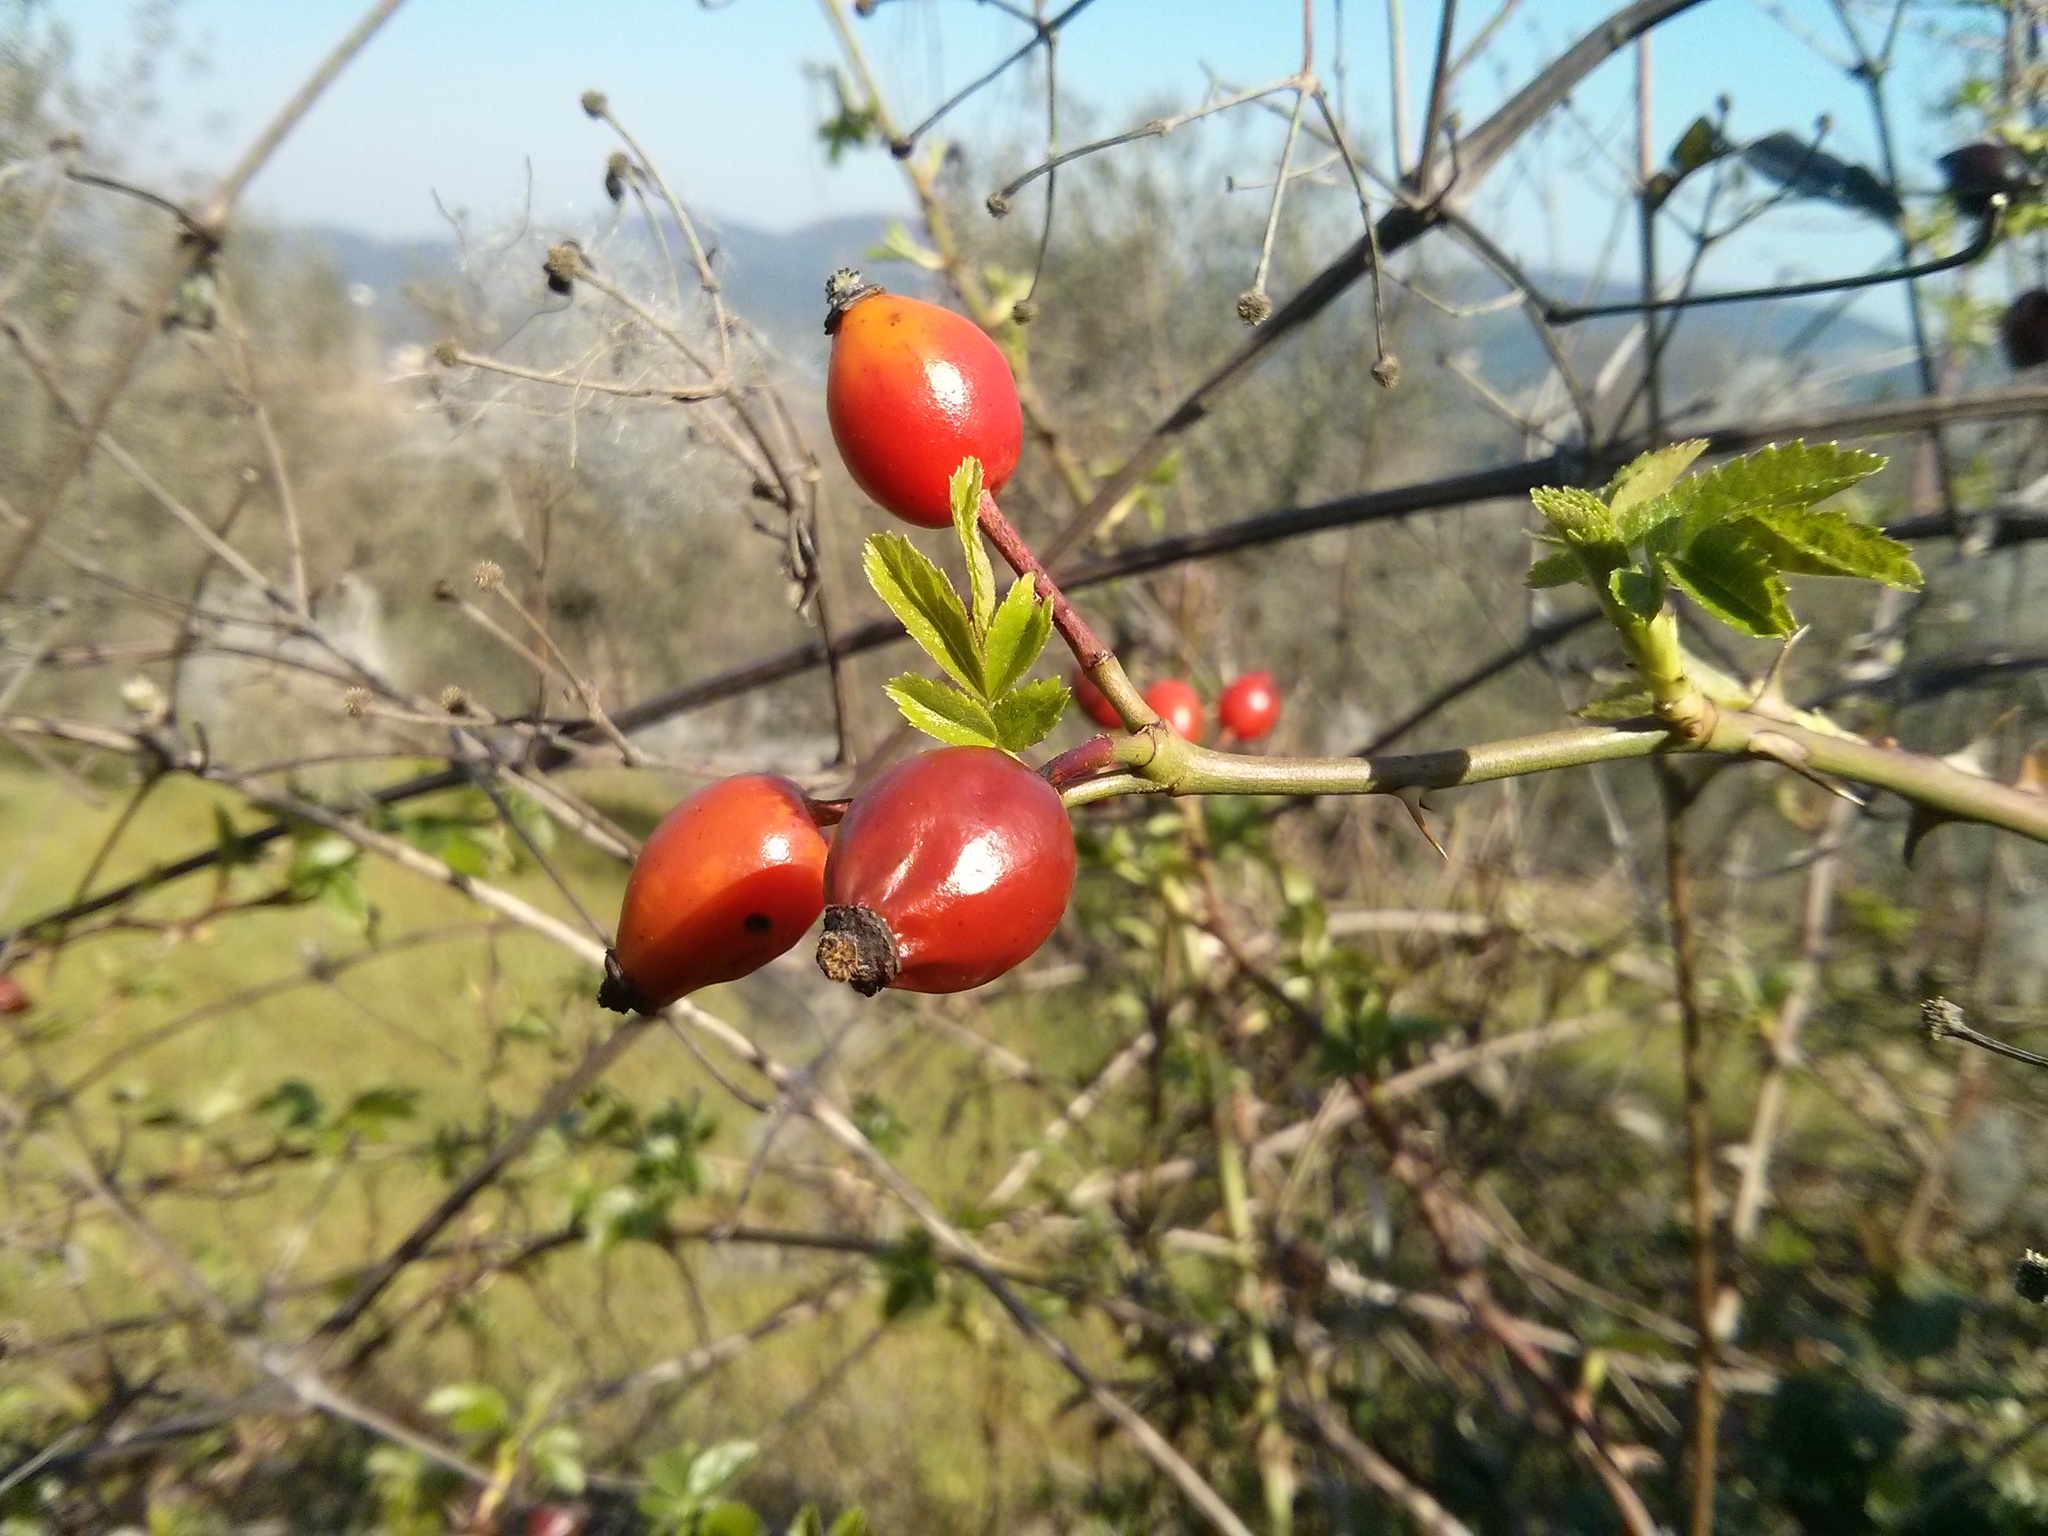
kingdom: Plantae
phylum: Tracheophyta
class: Magnoliopsida
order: Rosales
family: Rosaceae
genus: Rosa
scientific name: Rosa canina
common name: Dog rose
